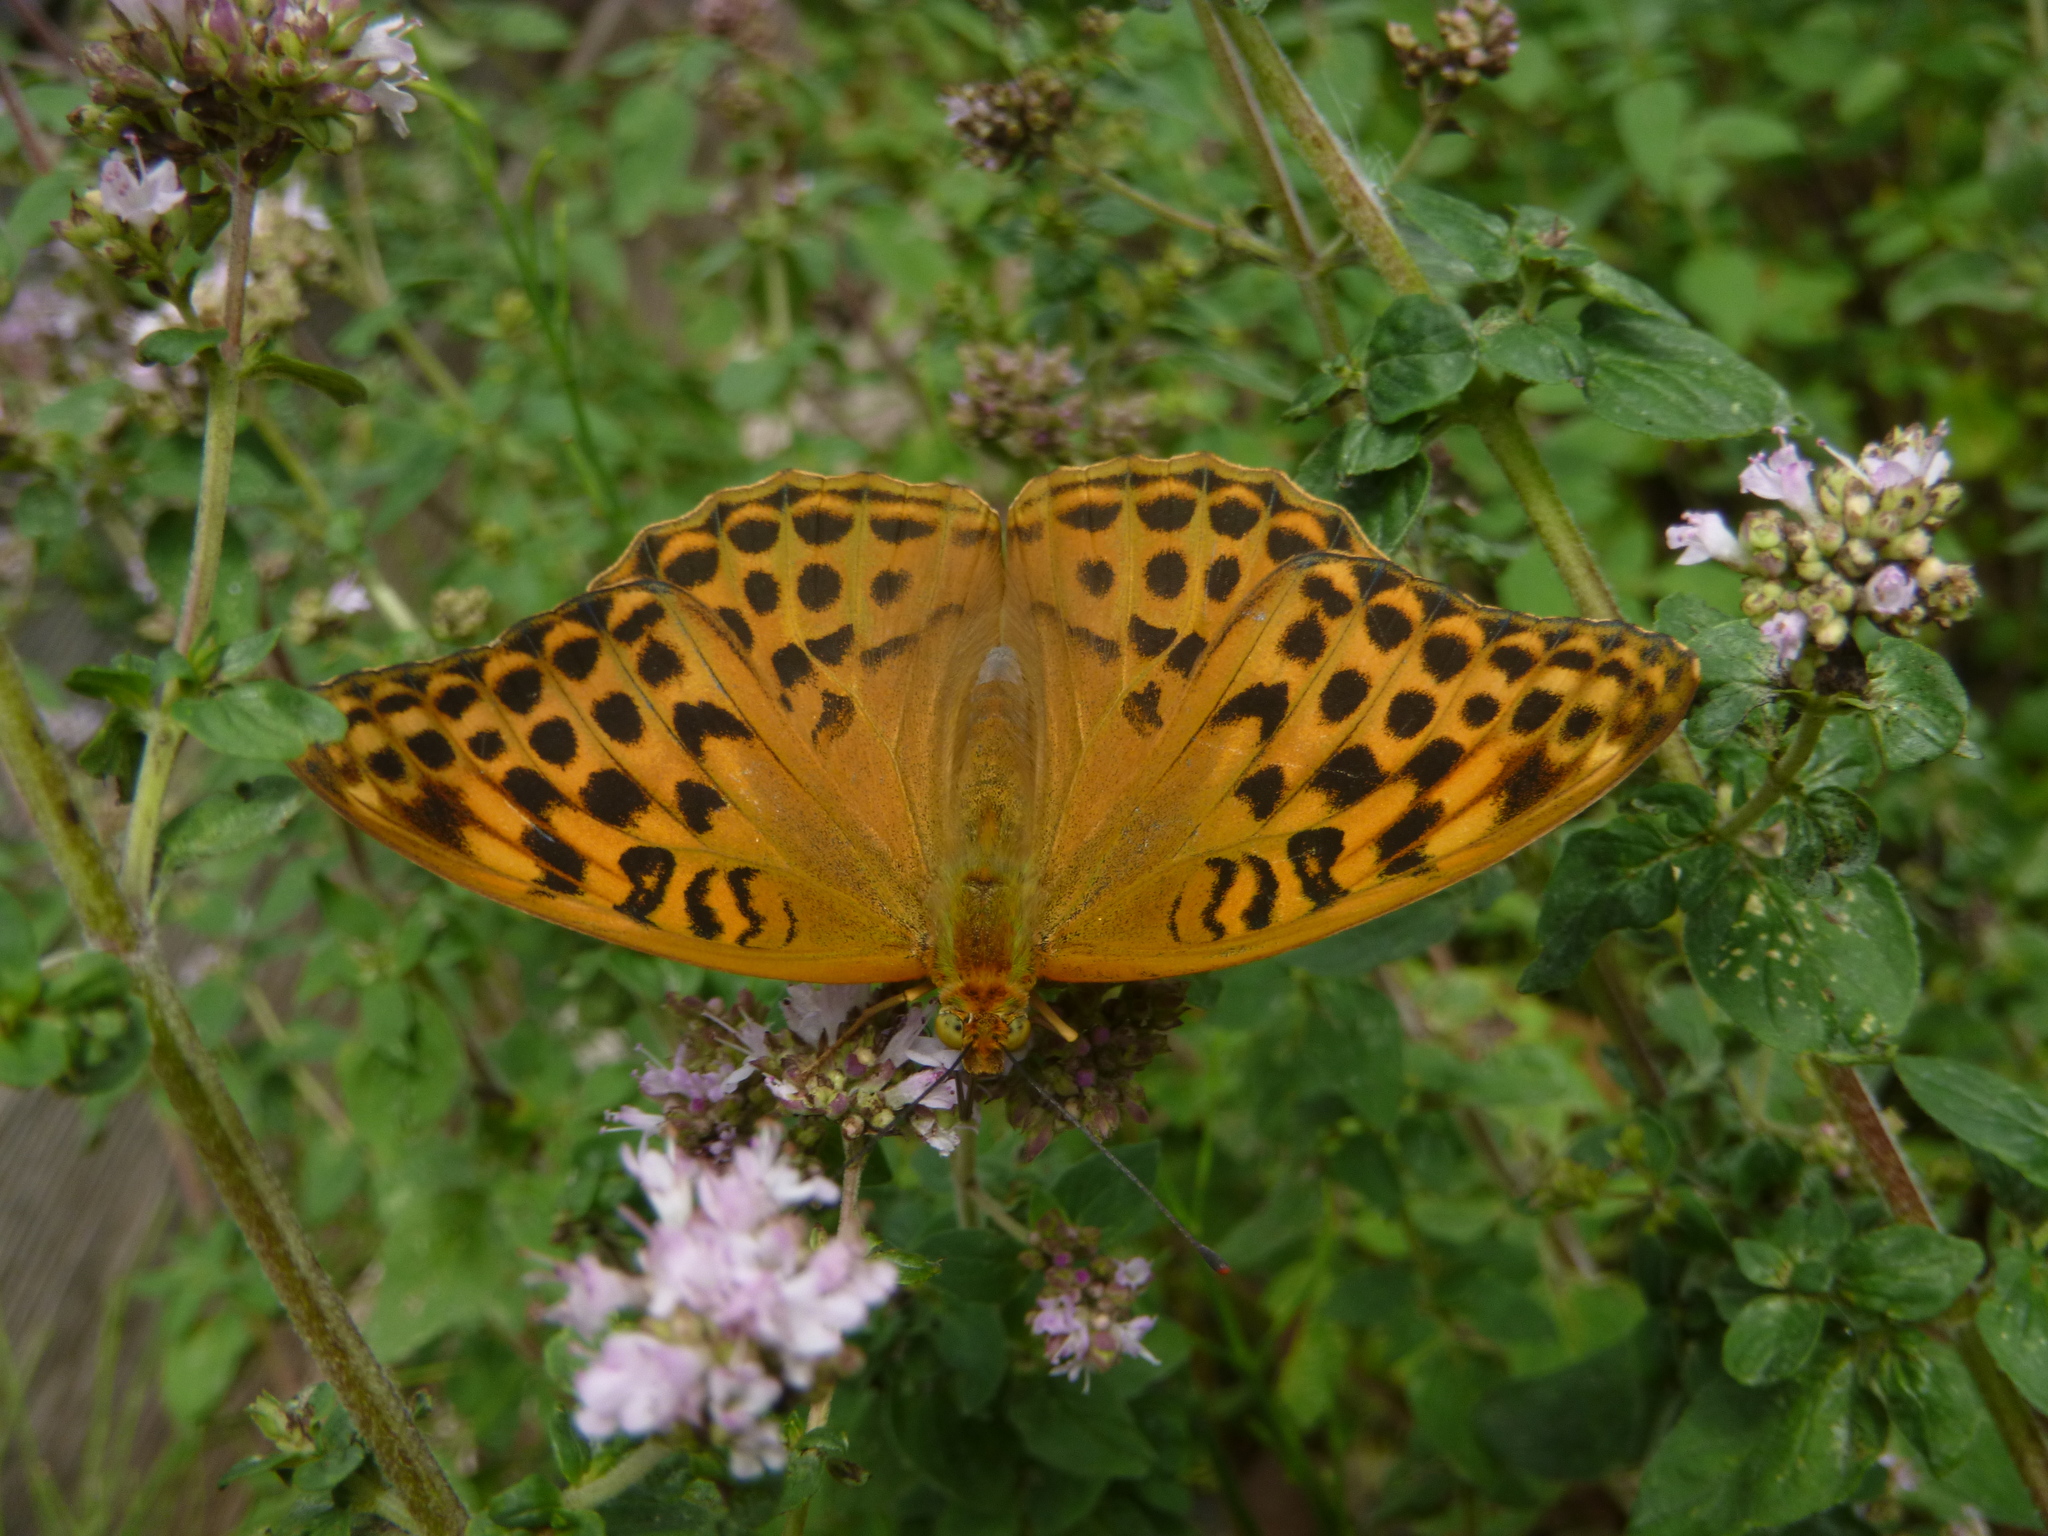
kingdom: Animalia
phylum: Arthropoda
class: Insecta
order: Lepidoptera
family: Nymphalidae
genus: Argynnis
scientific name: Argynnis paphia
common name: Silver-washed fritillary
